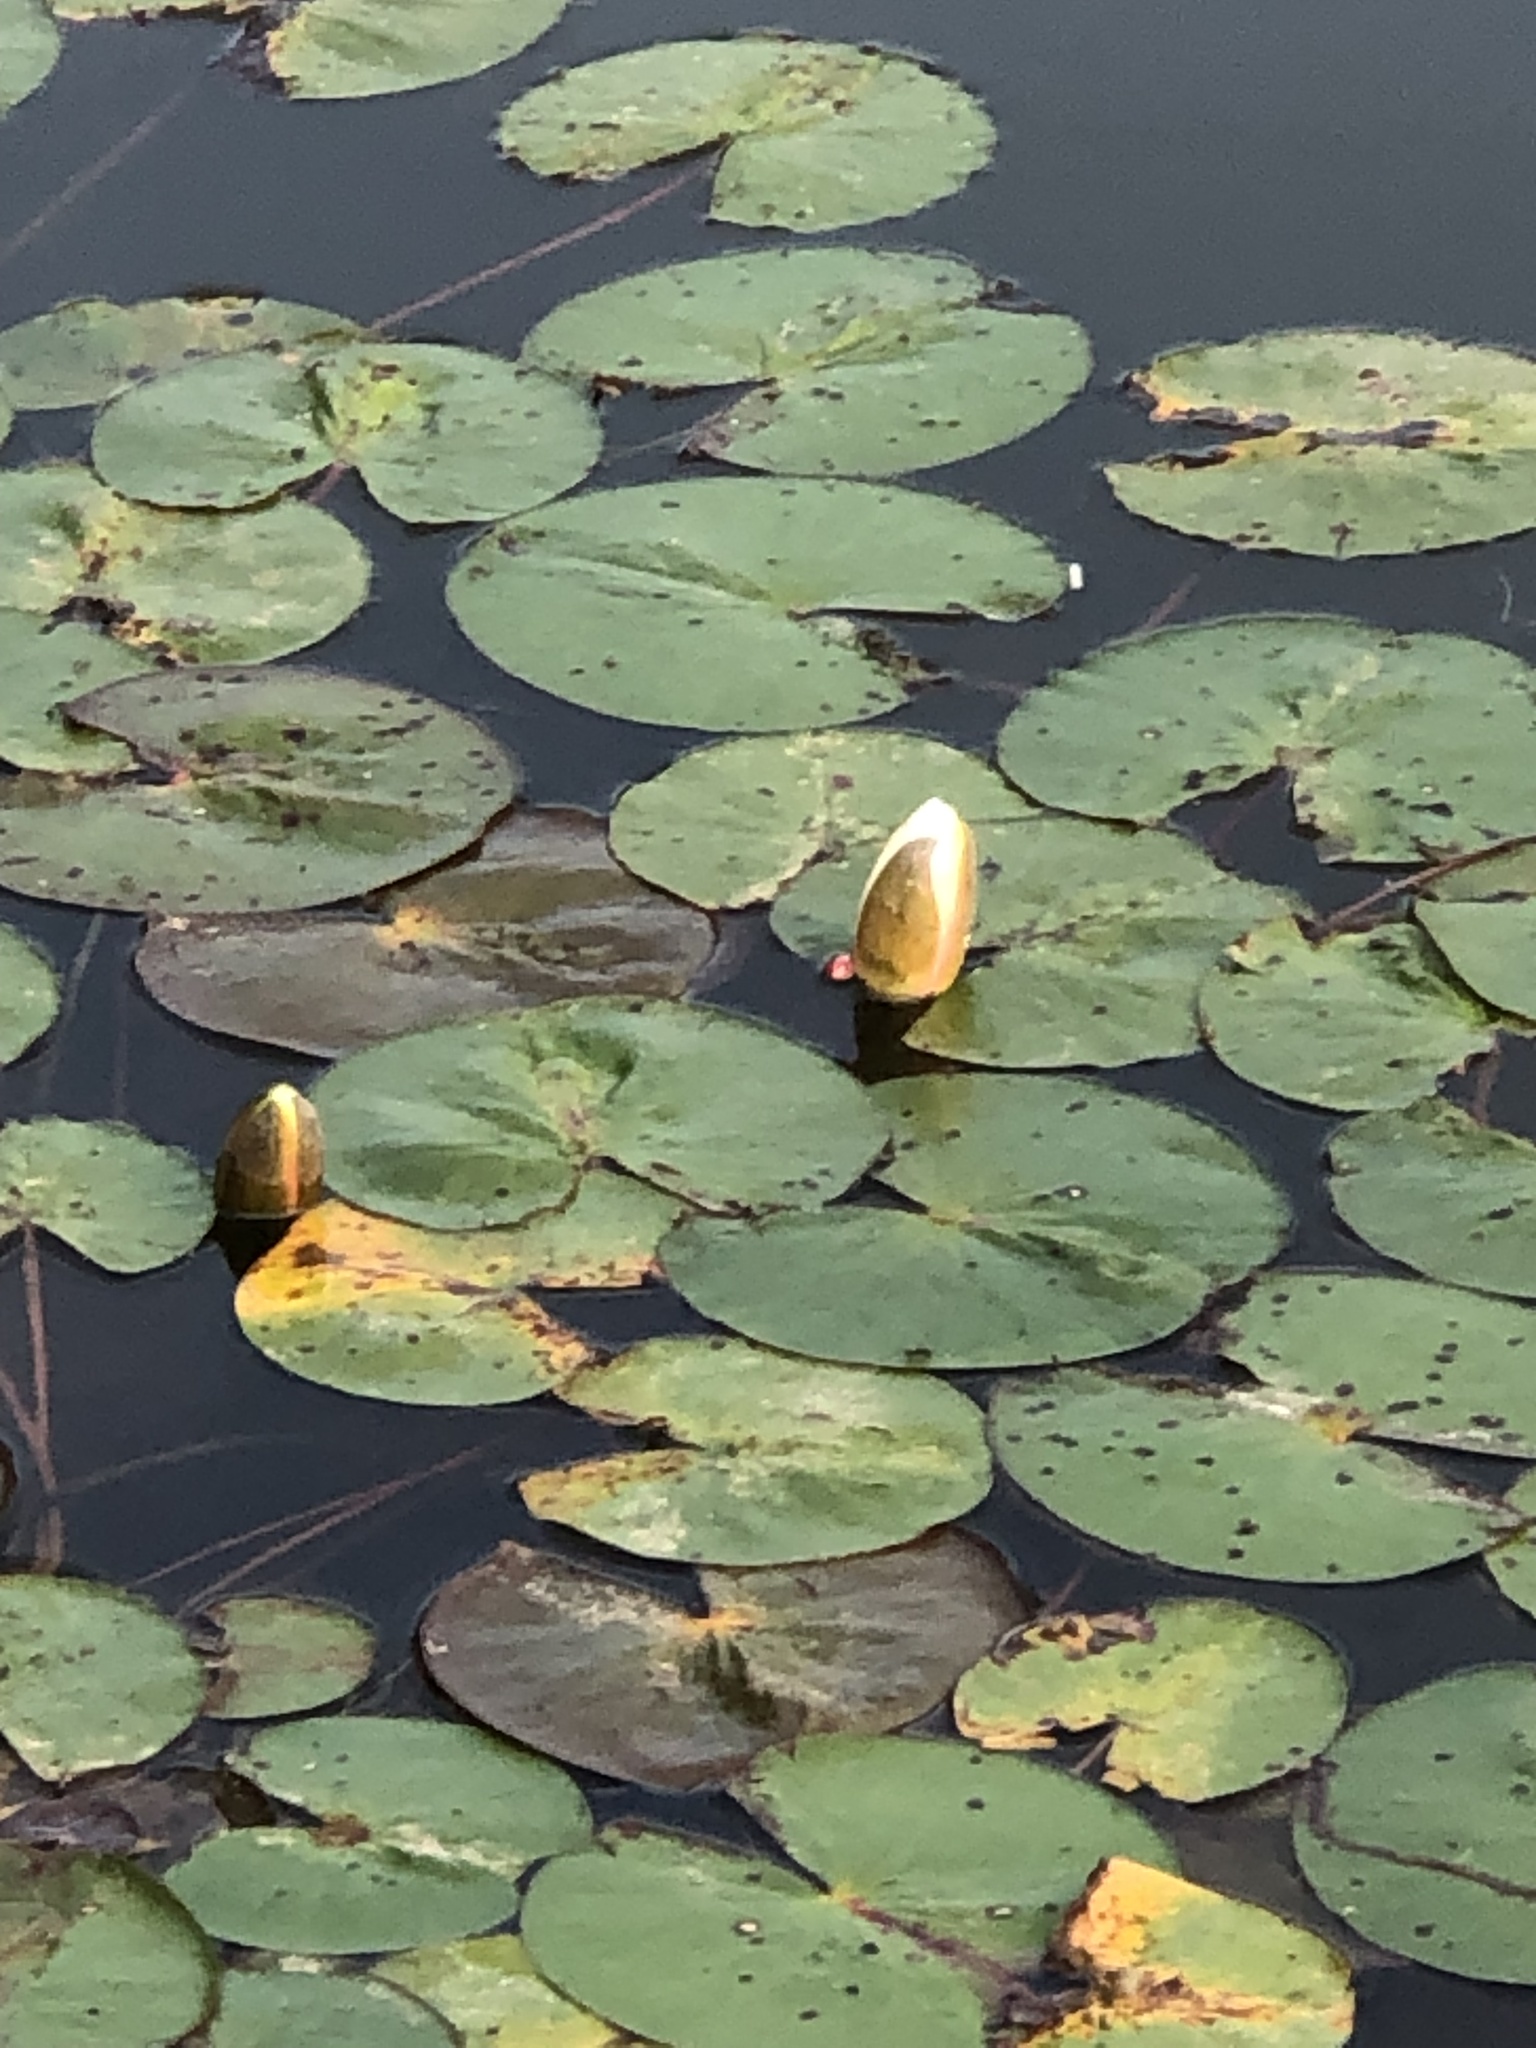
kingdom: Plantae
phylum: Tracheophyta
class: Magnoliopsida
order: Nymphaeales
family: Nymphaeaceae
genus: Nymphaea
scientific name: Nymphaea odorata
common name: Fragrant water-lily
